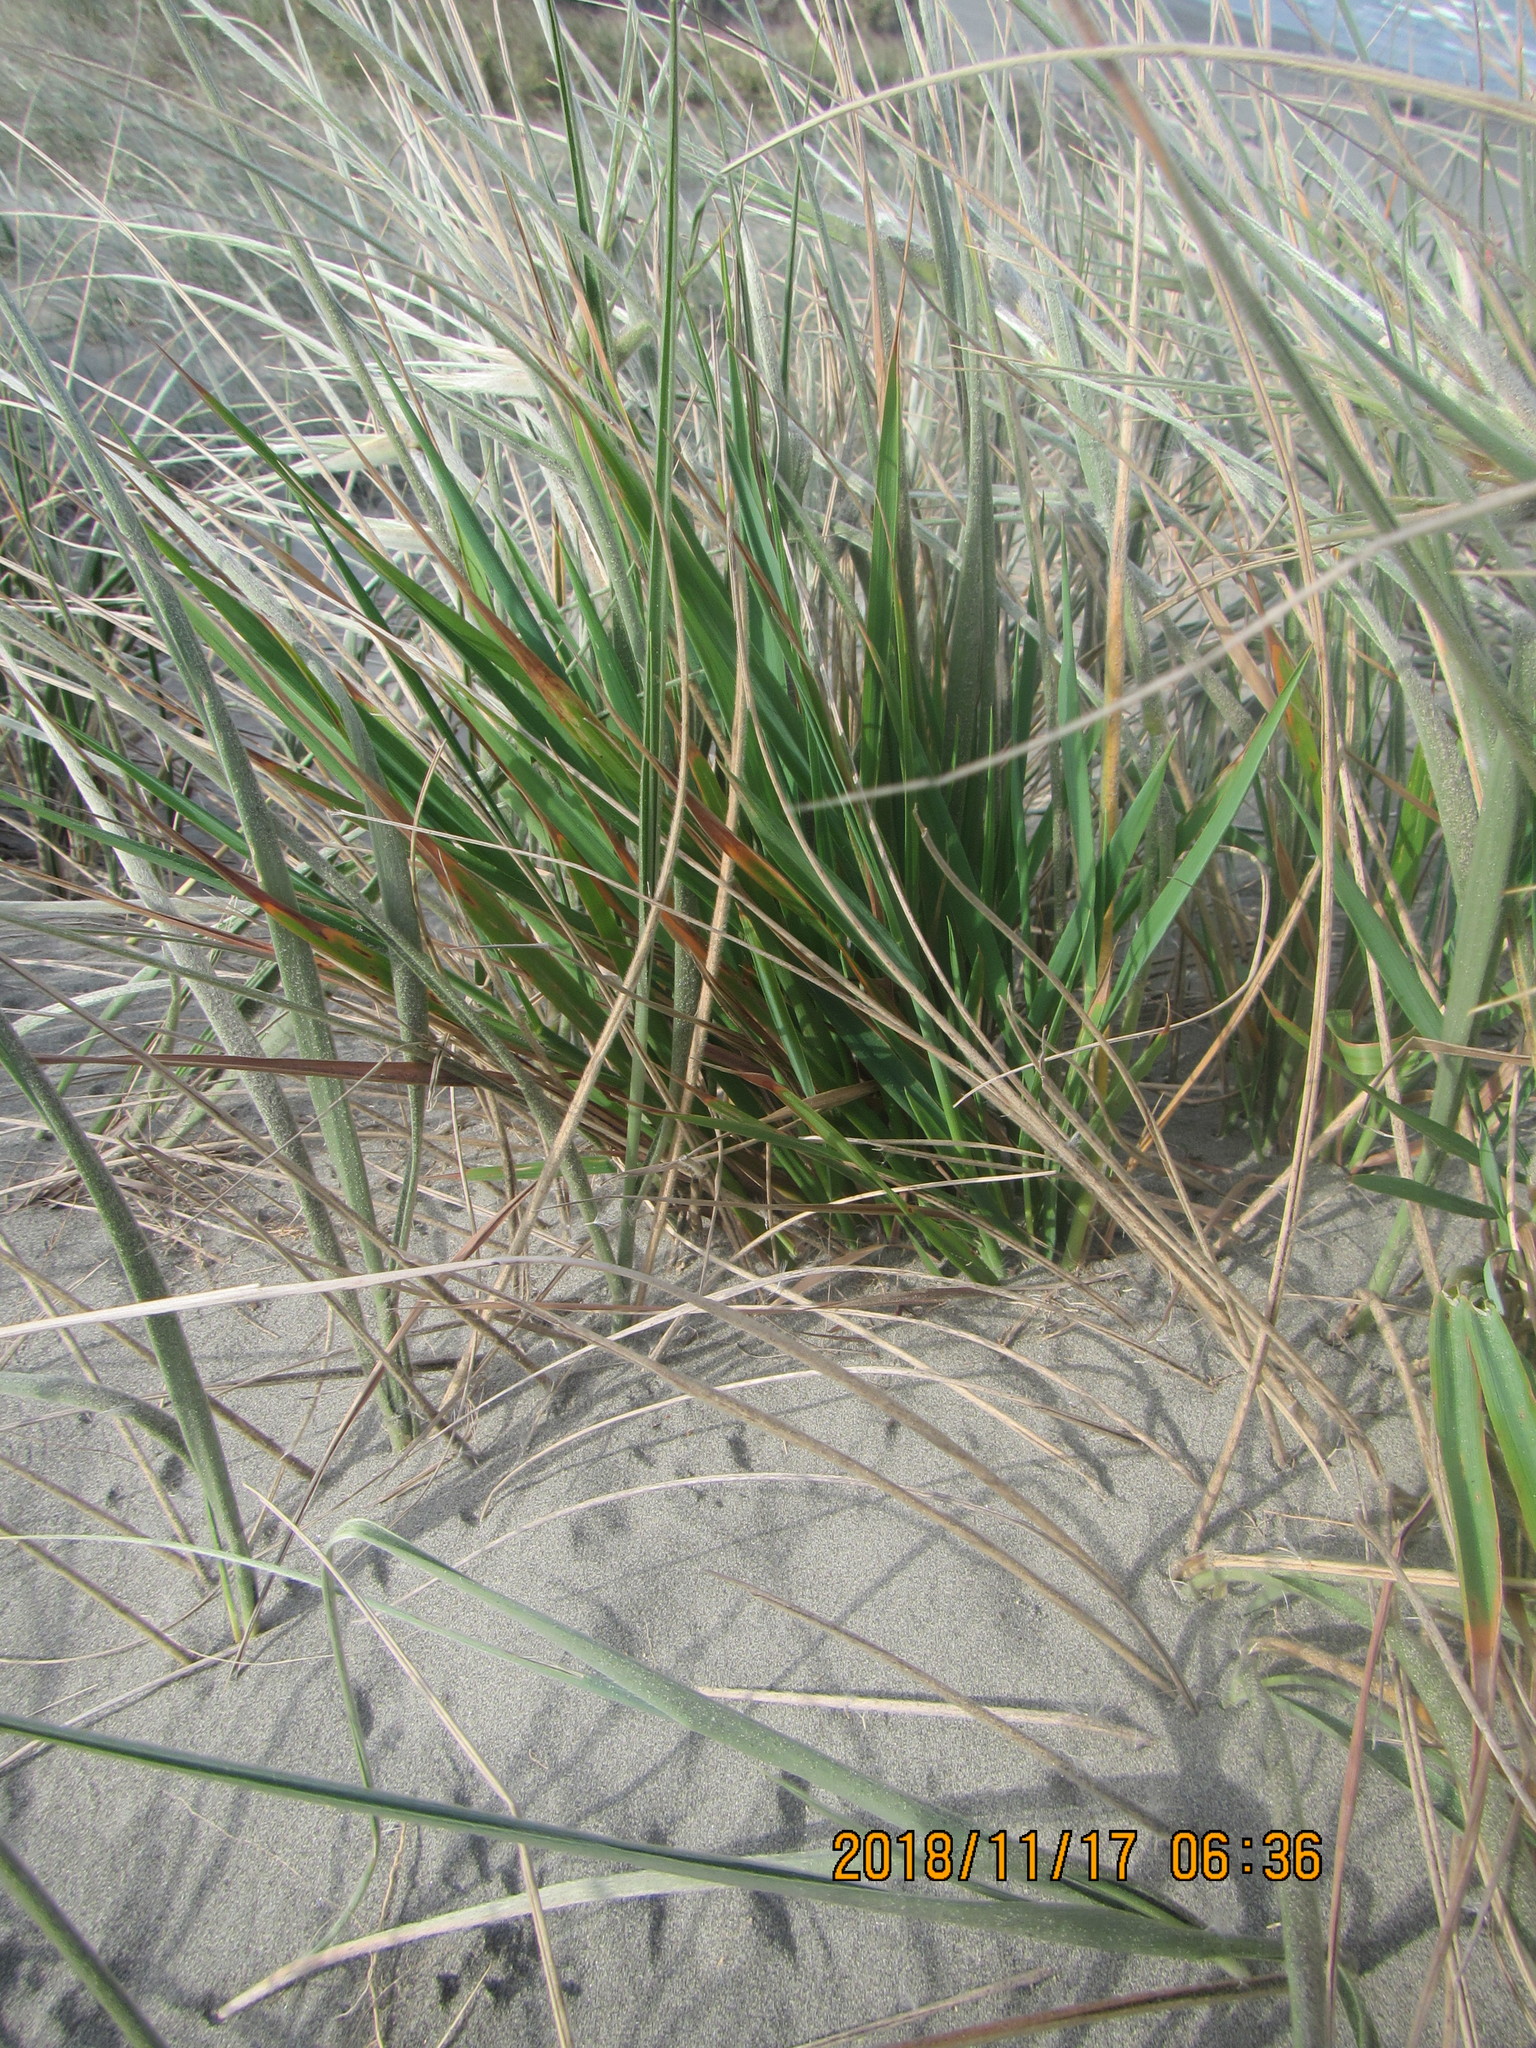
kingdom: Plantae
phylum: Tracheophyta
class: Liliopsida
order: Poales
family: Poaceae
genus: Lachnagrostis
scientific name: Lachnagrostis billardierei
